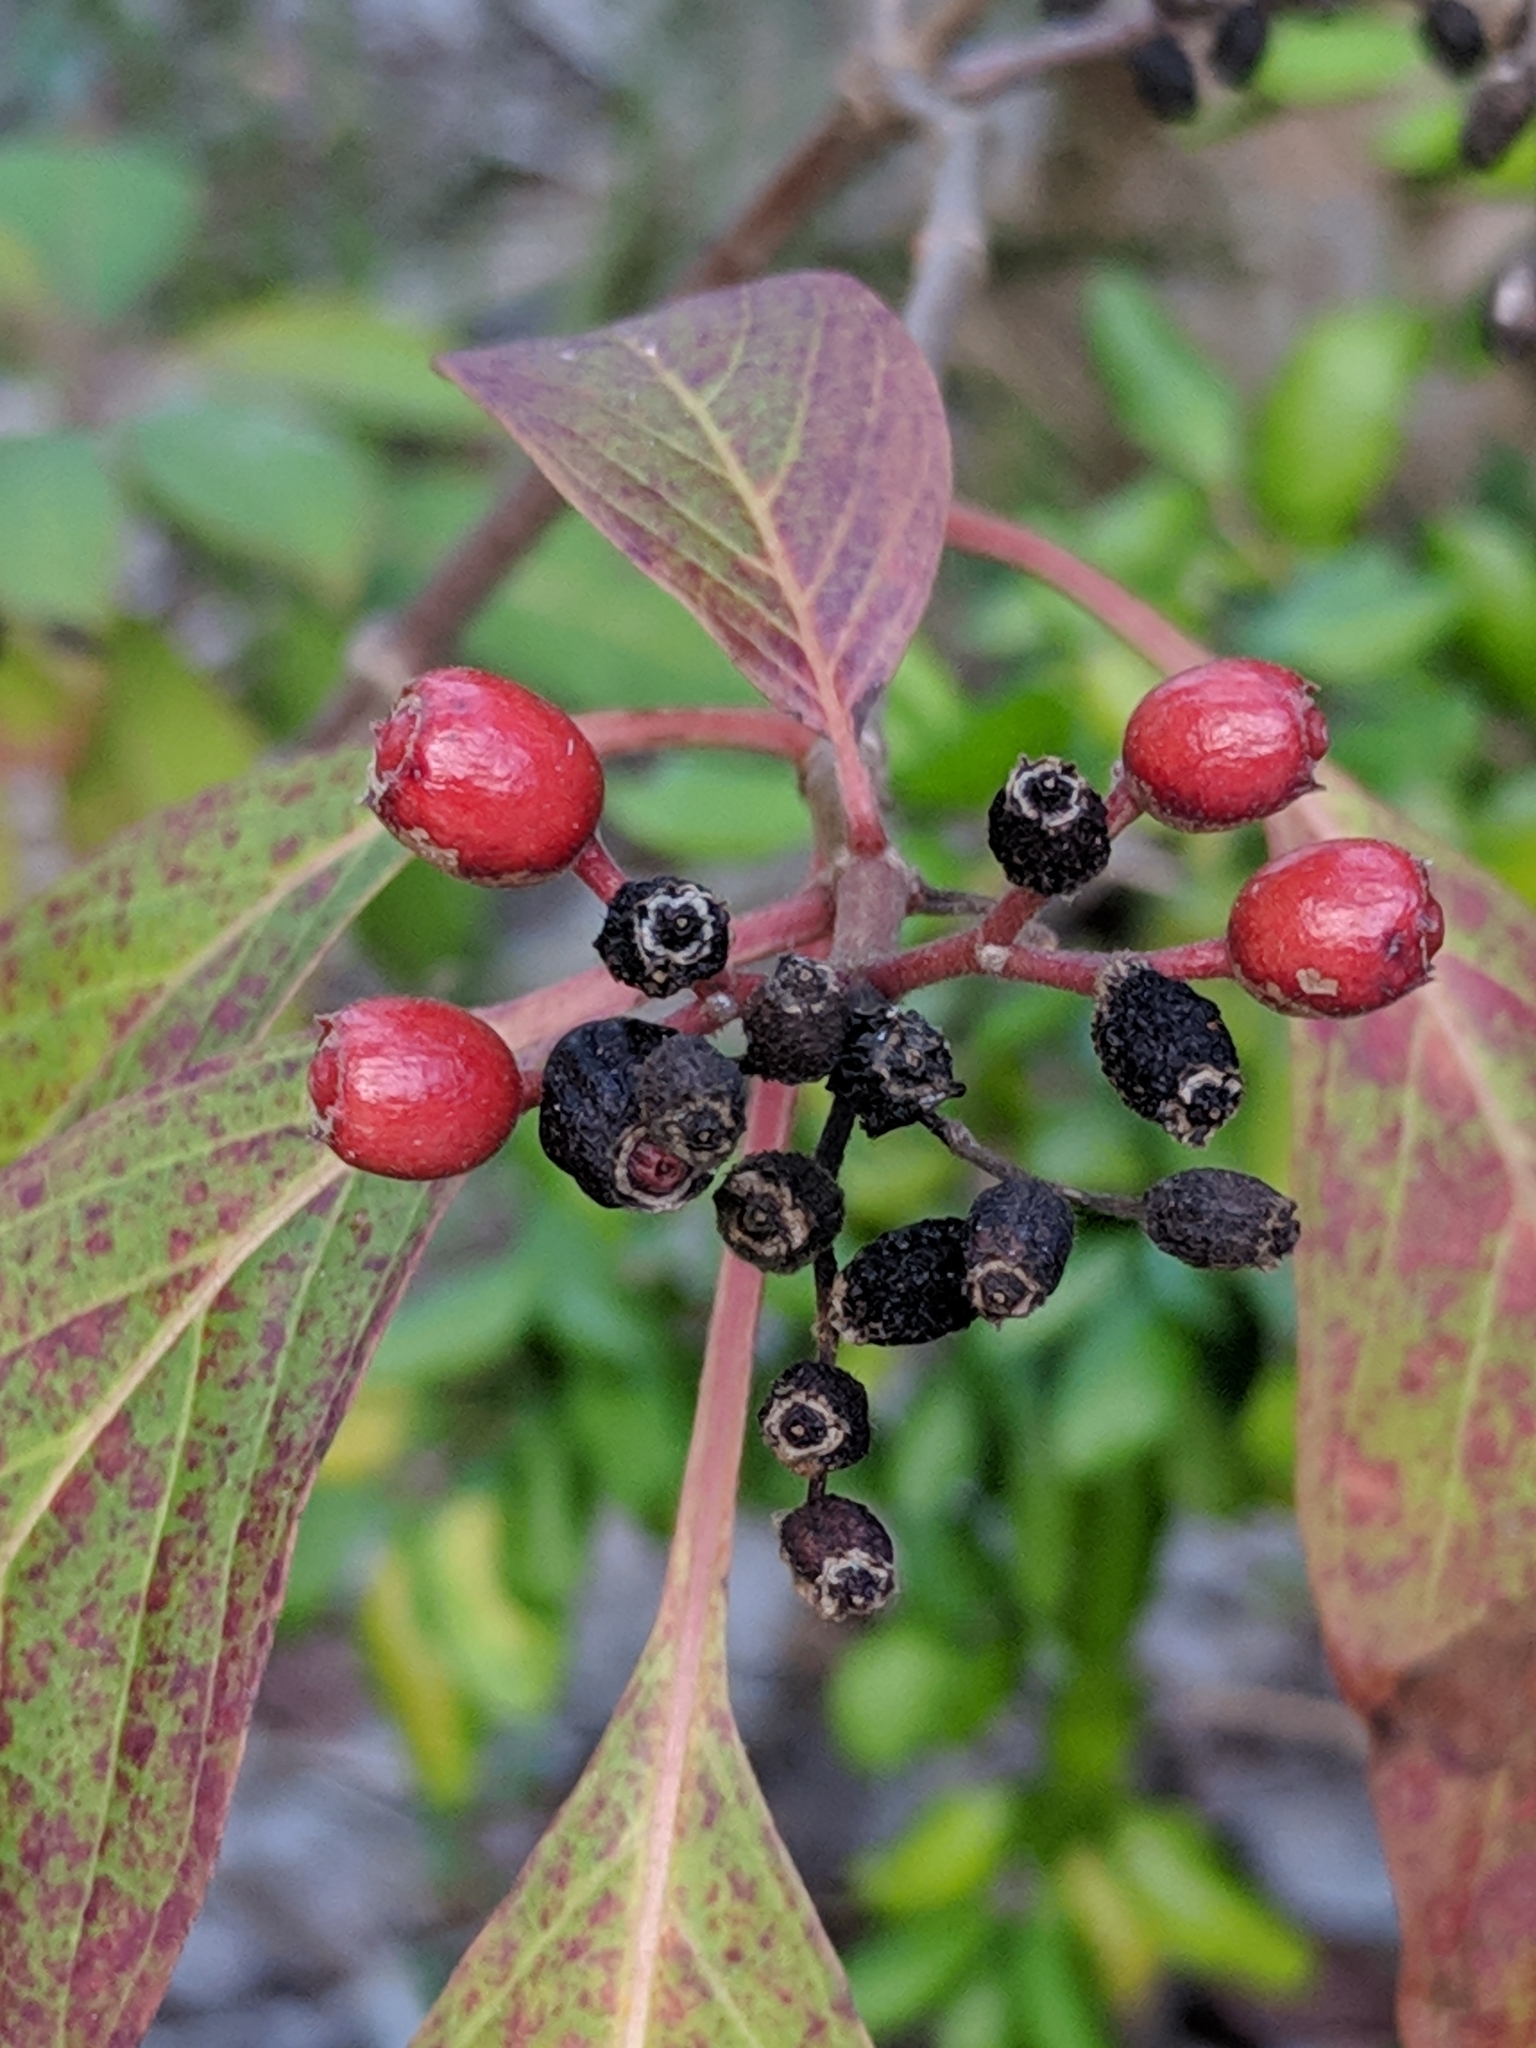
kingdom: Plantae
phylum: Tracheophyta
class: Magnoliopsida
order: Gentianales
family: Rubiaceae
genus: Hamelia
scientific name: Hamelia patens
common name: Redhead
